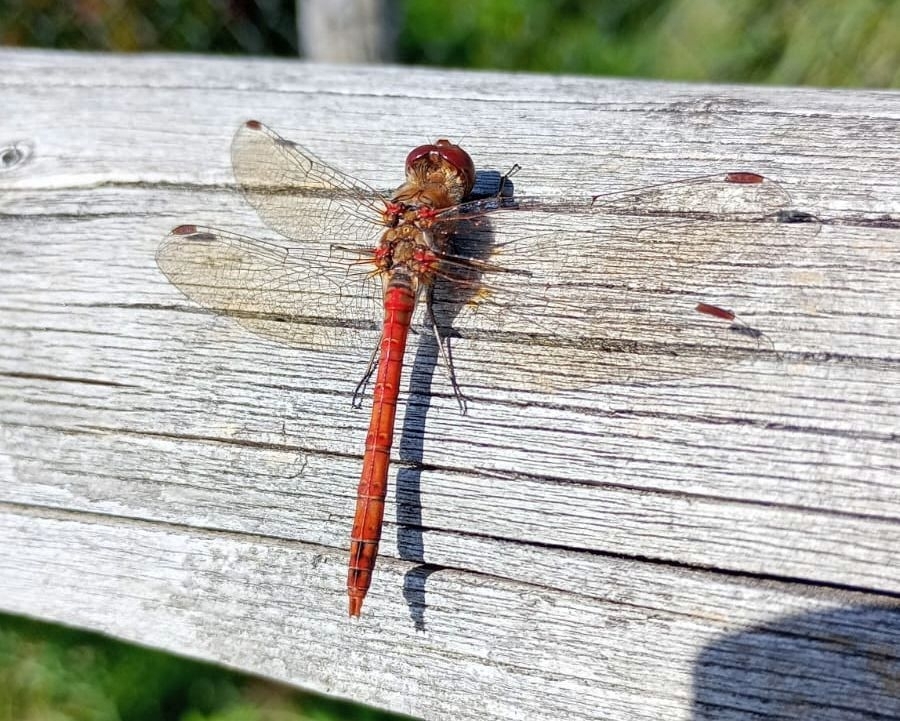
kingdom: Animalia
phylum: Arthropoda
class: Insecta
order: Odonata
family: Libellulidae
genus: Sympetrum
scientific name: Sympetrum striolatum
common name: Common darter
